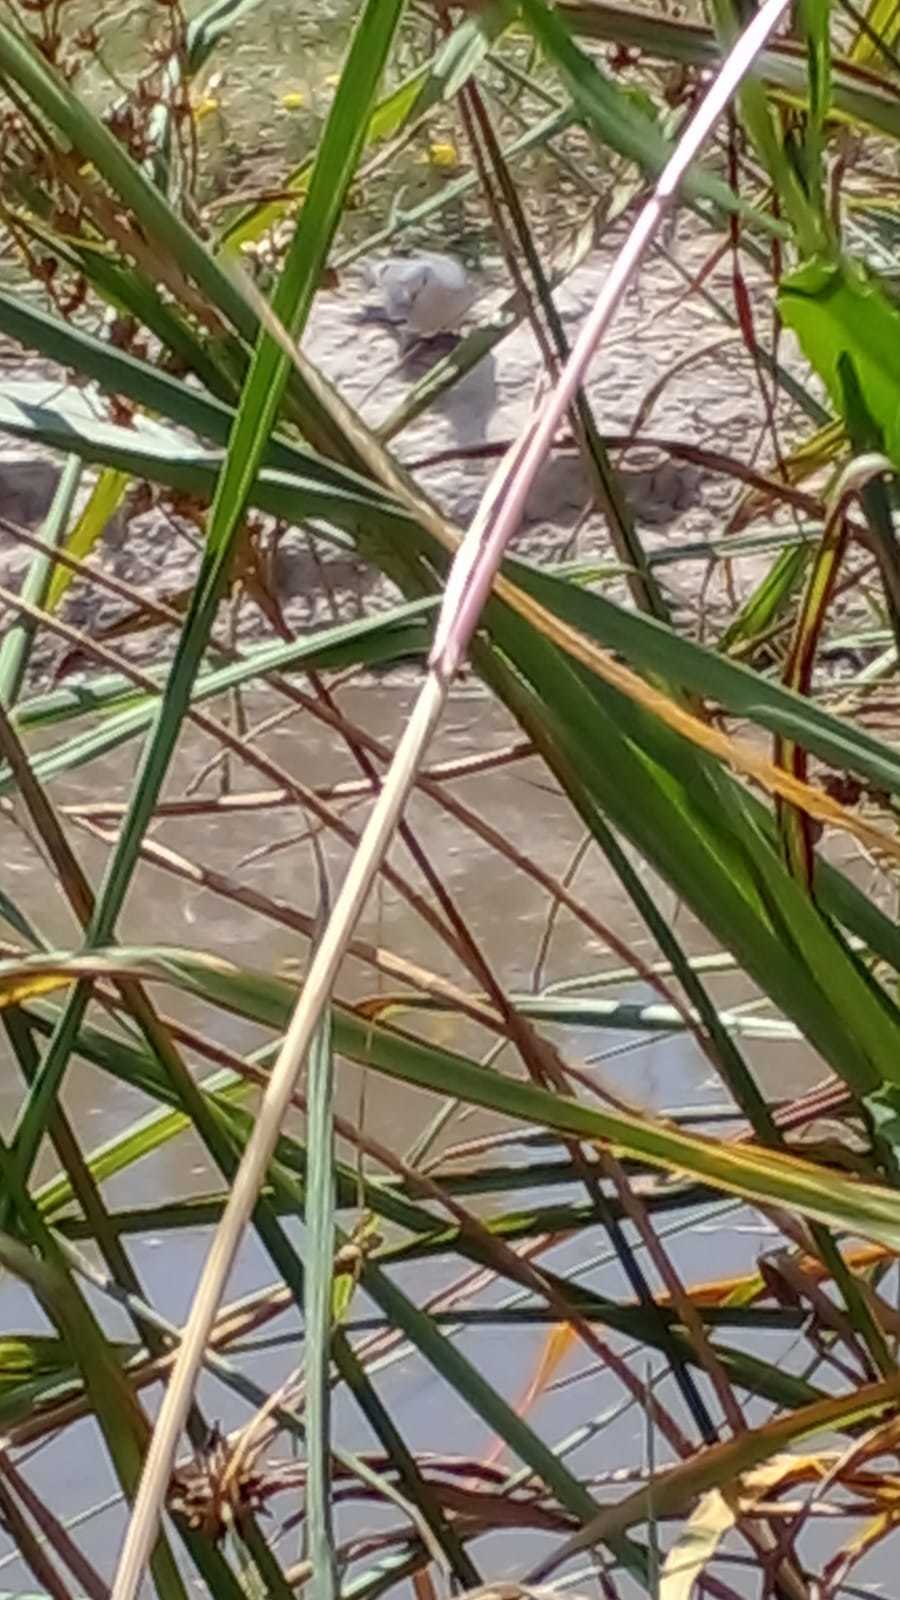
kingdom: Animalia
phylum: Chordata
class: Aves
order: Columbiformes
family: Columbidae
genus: Columbina
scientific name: Columbina picui
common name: Picui ground dove
